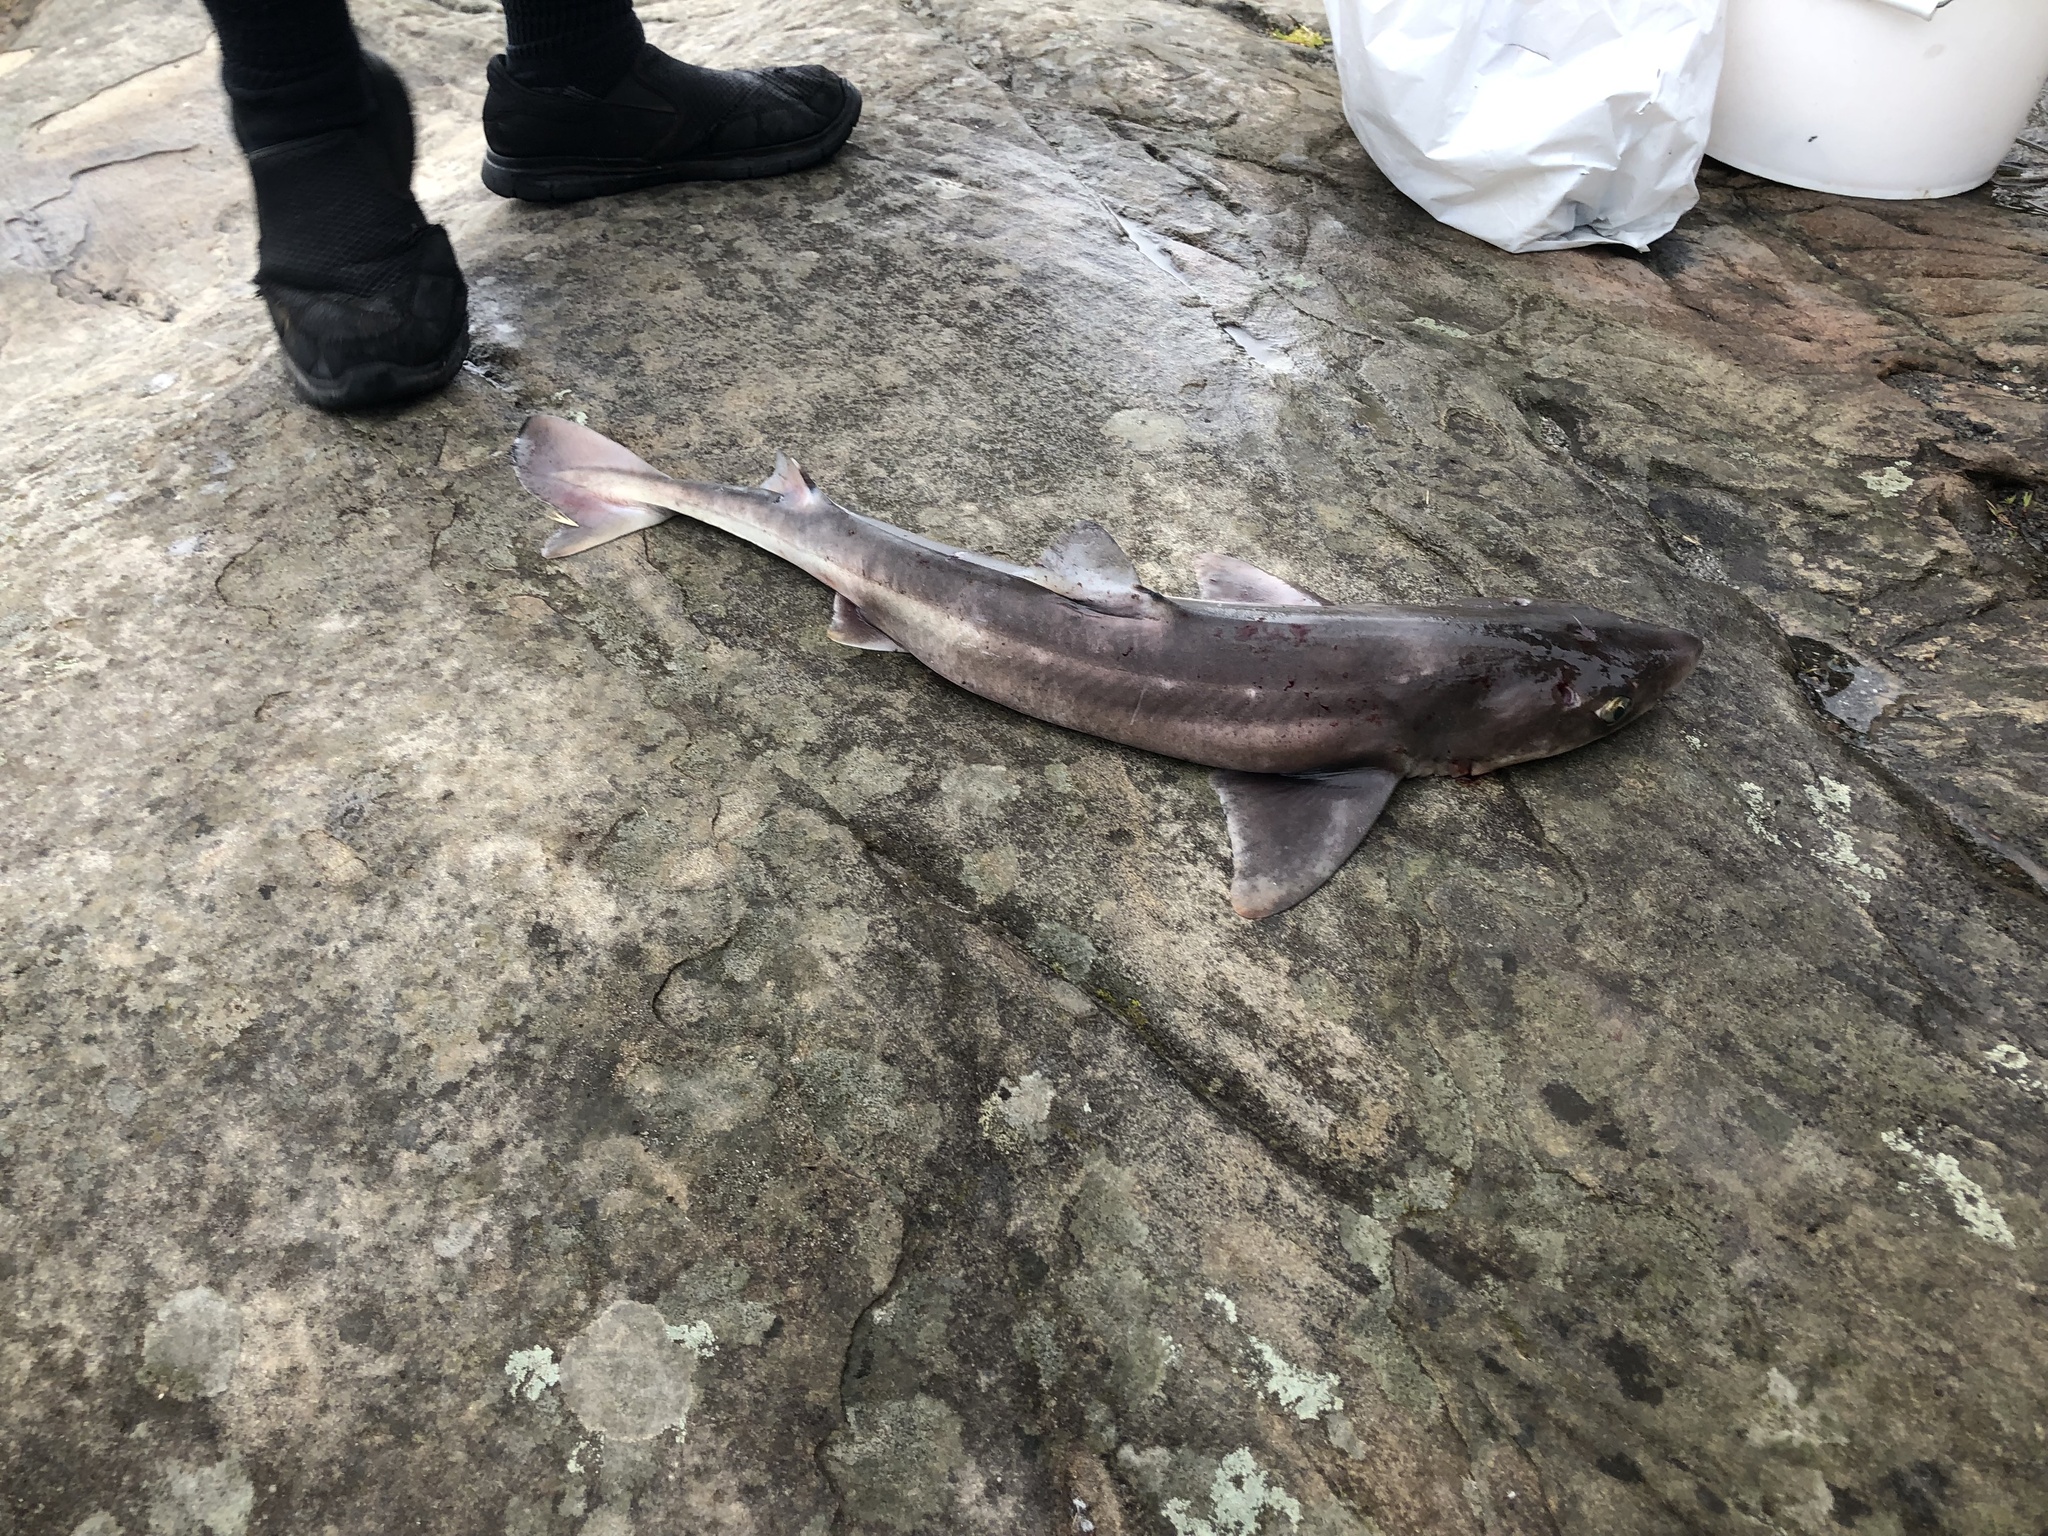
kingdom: Animalia
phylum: Chordata
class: Elasmobranchii
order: Squaliformes
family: Squalidae
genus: Squalus
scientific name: Squalus suckleyi
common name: Spiny dogfish
